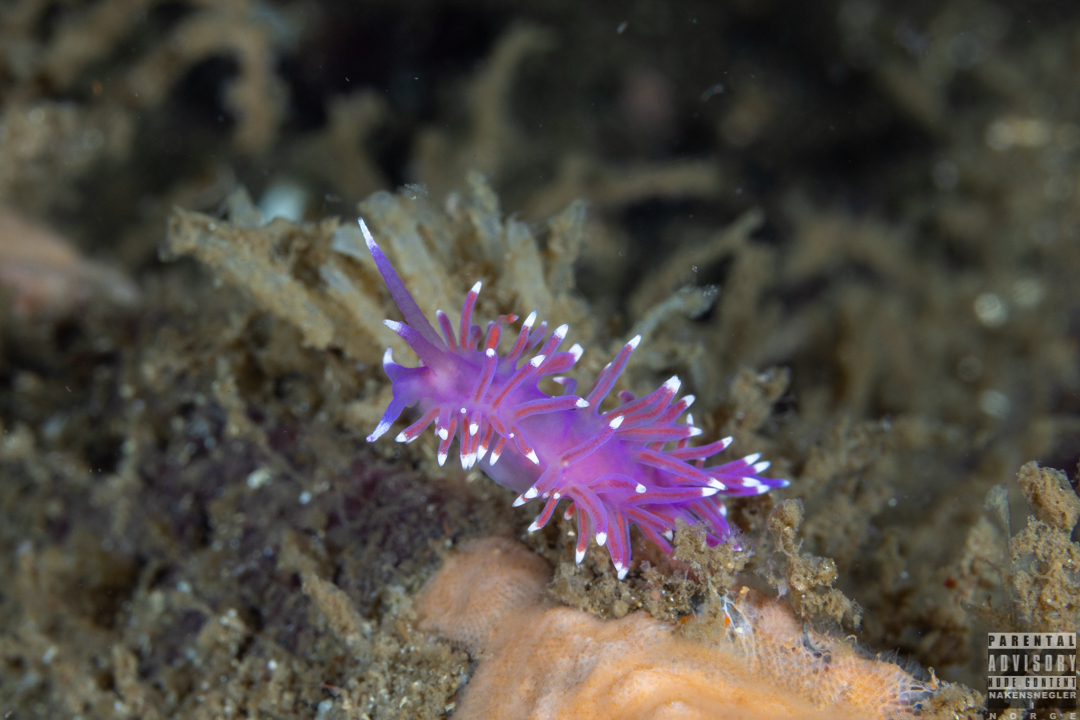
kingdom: Animalia
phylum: Mollusca
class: Gastropoda
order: Nudibranchia
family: Flabellinidae
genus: Edmundsella
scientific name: Edmundsella pedata
